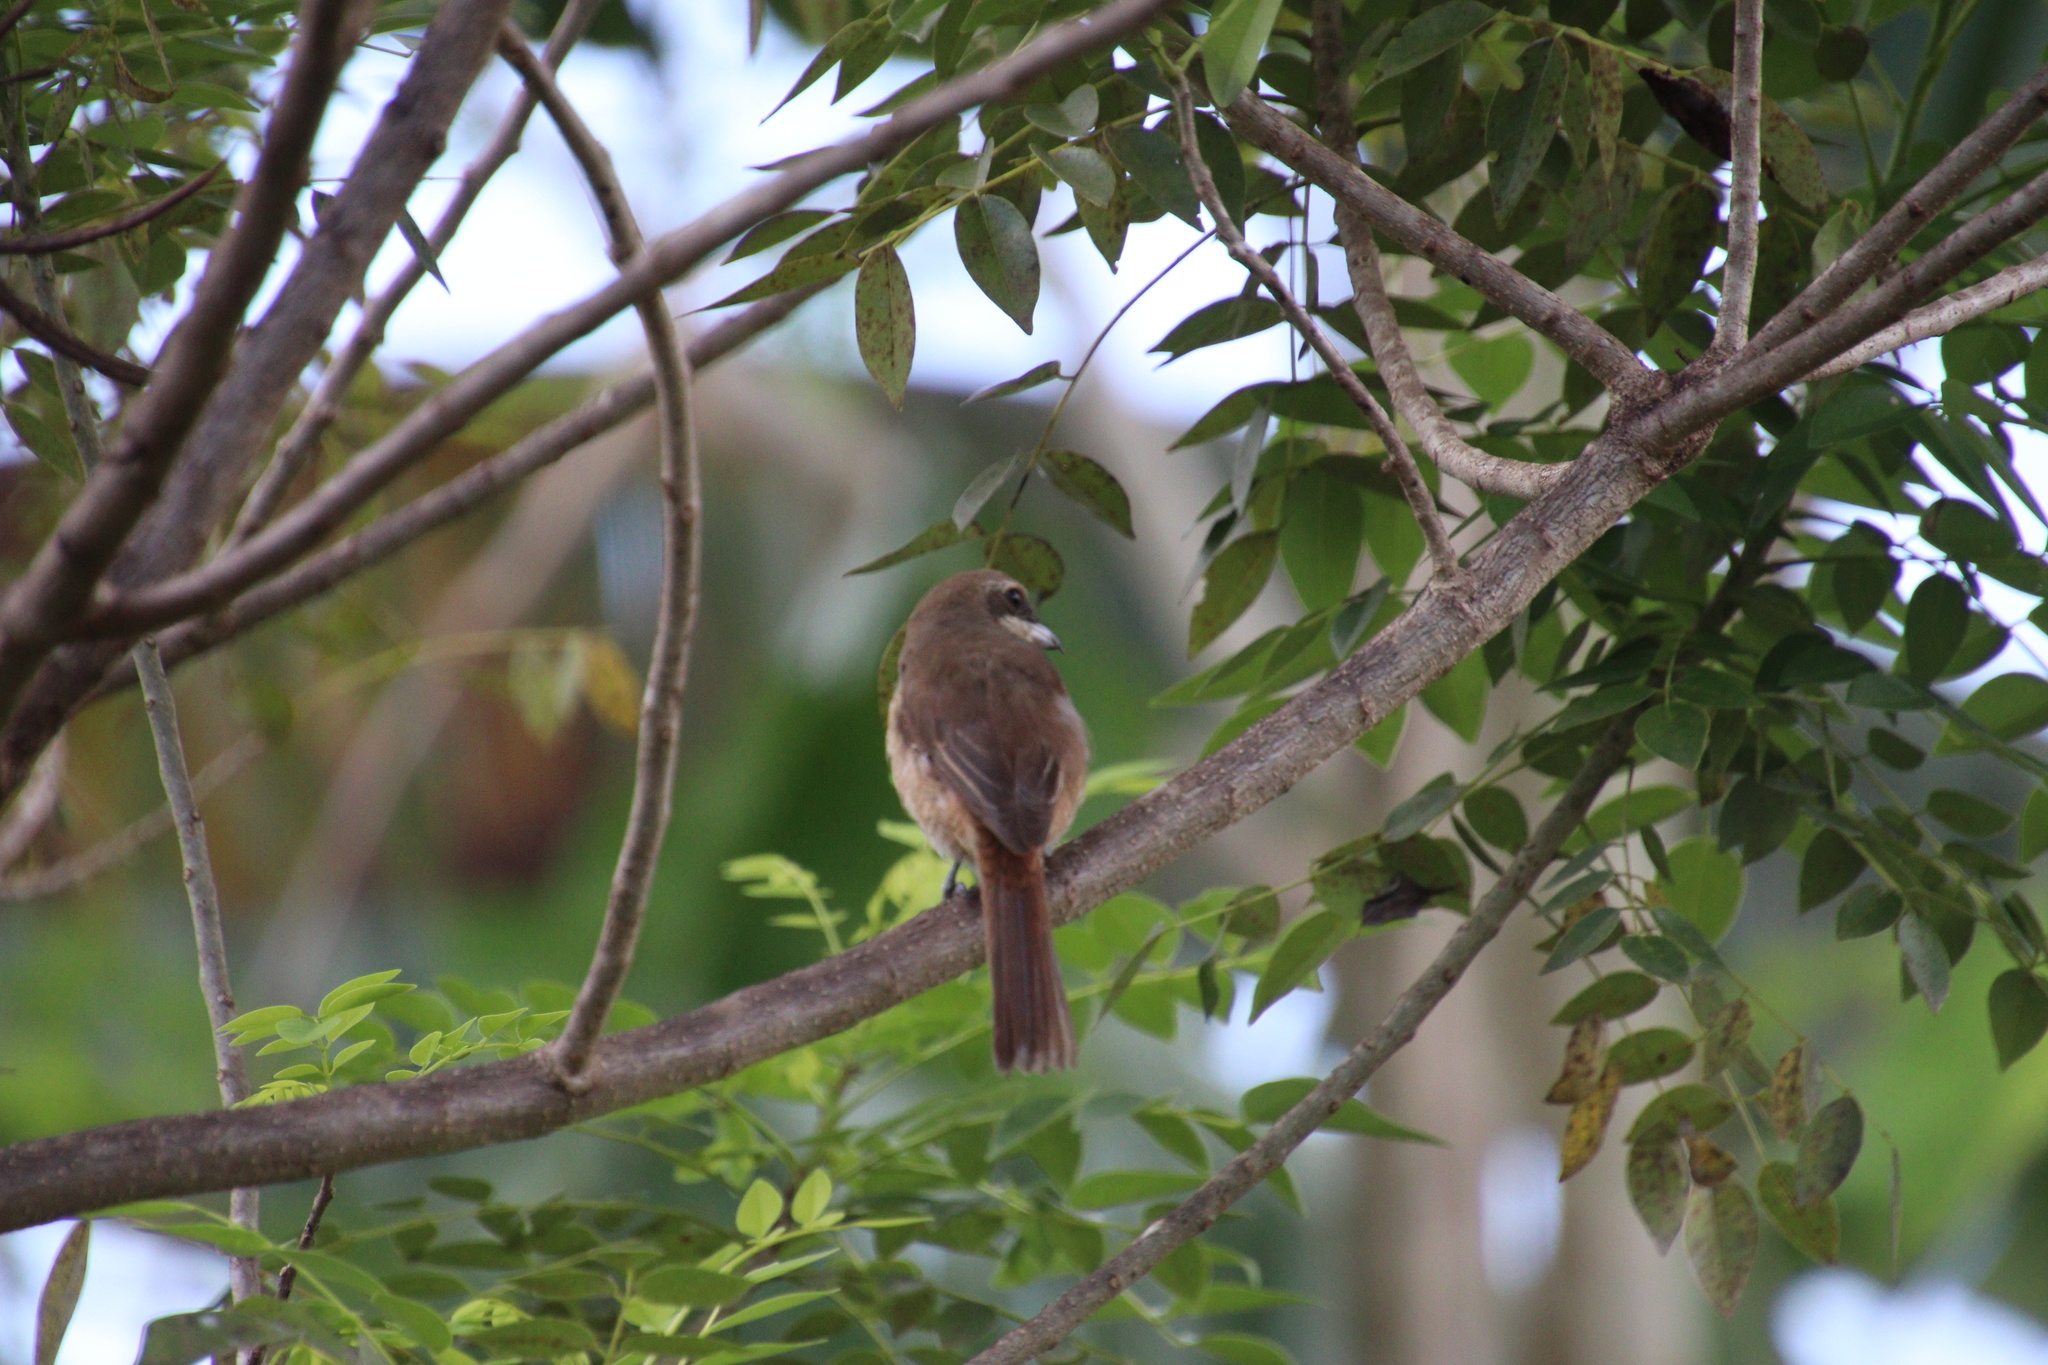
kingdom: Animalia
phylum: Chordata
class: Aves
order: Passeriformes
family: Laniidae
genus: Lanius
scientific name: Lanius cristatus
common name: Brown shrike
